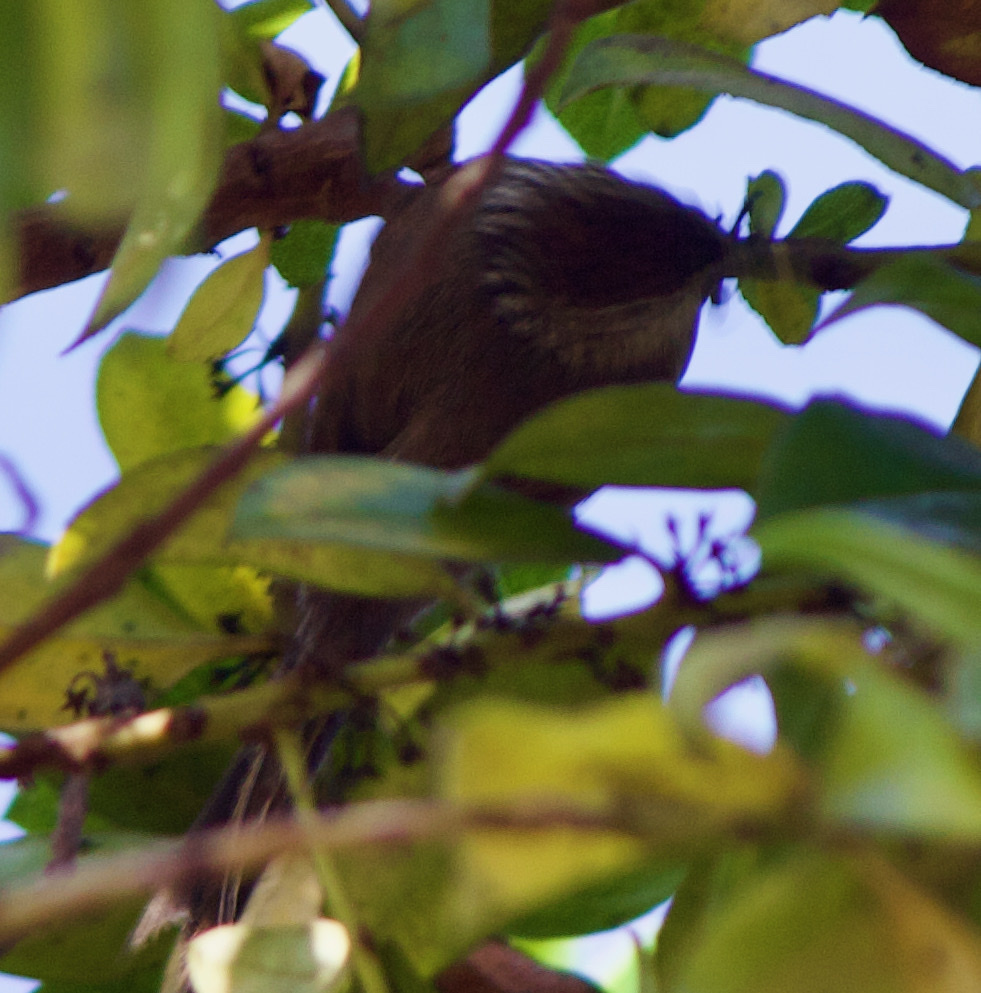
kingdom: Animalia
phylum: Chordata
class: Aves
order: Passeriformes
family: Furnariidae
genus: Leptasthenura
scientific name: Leptasthenura aegithaloides
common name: Plain-mantled tit-spinetail
